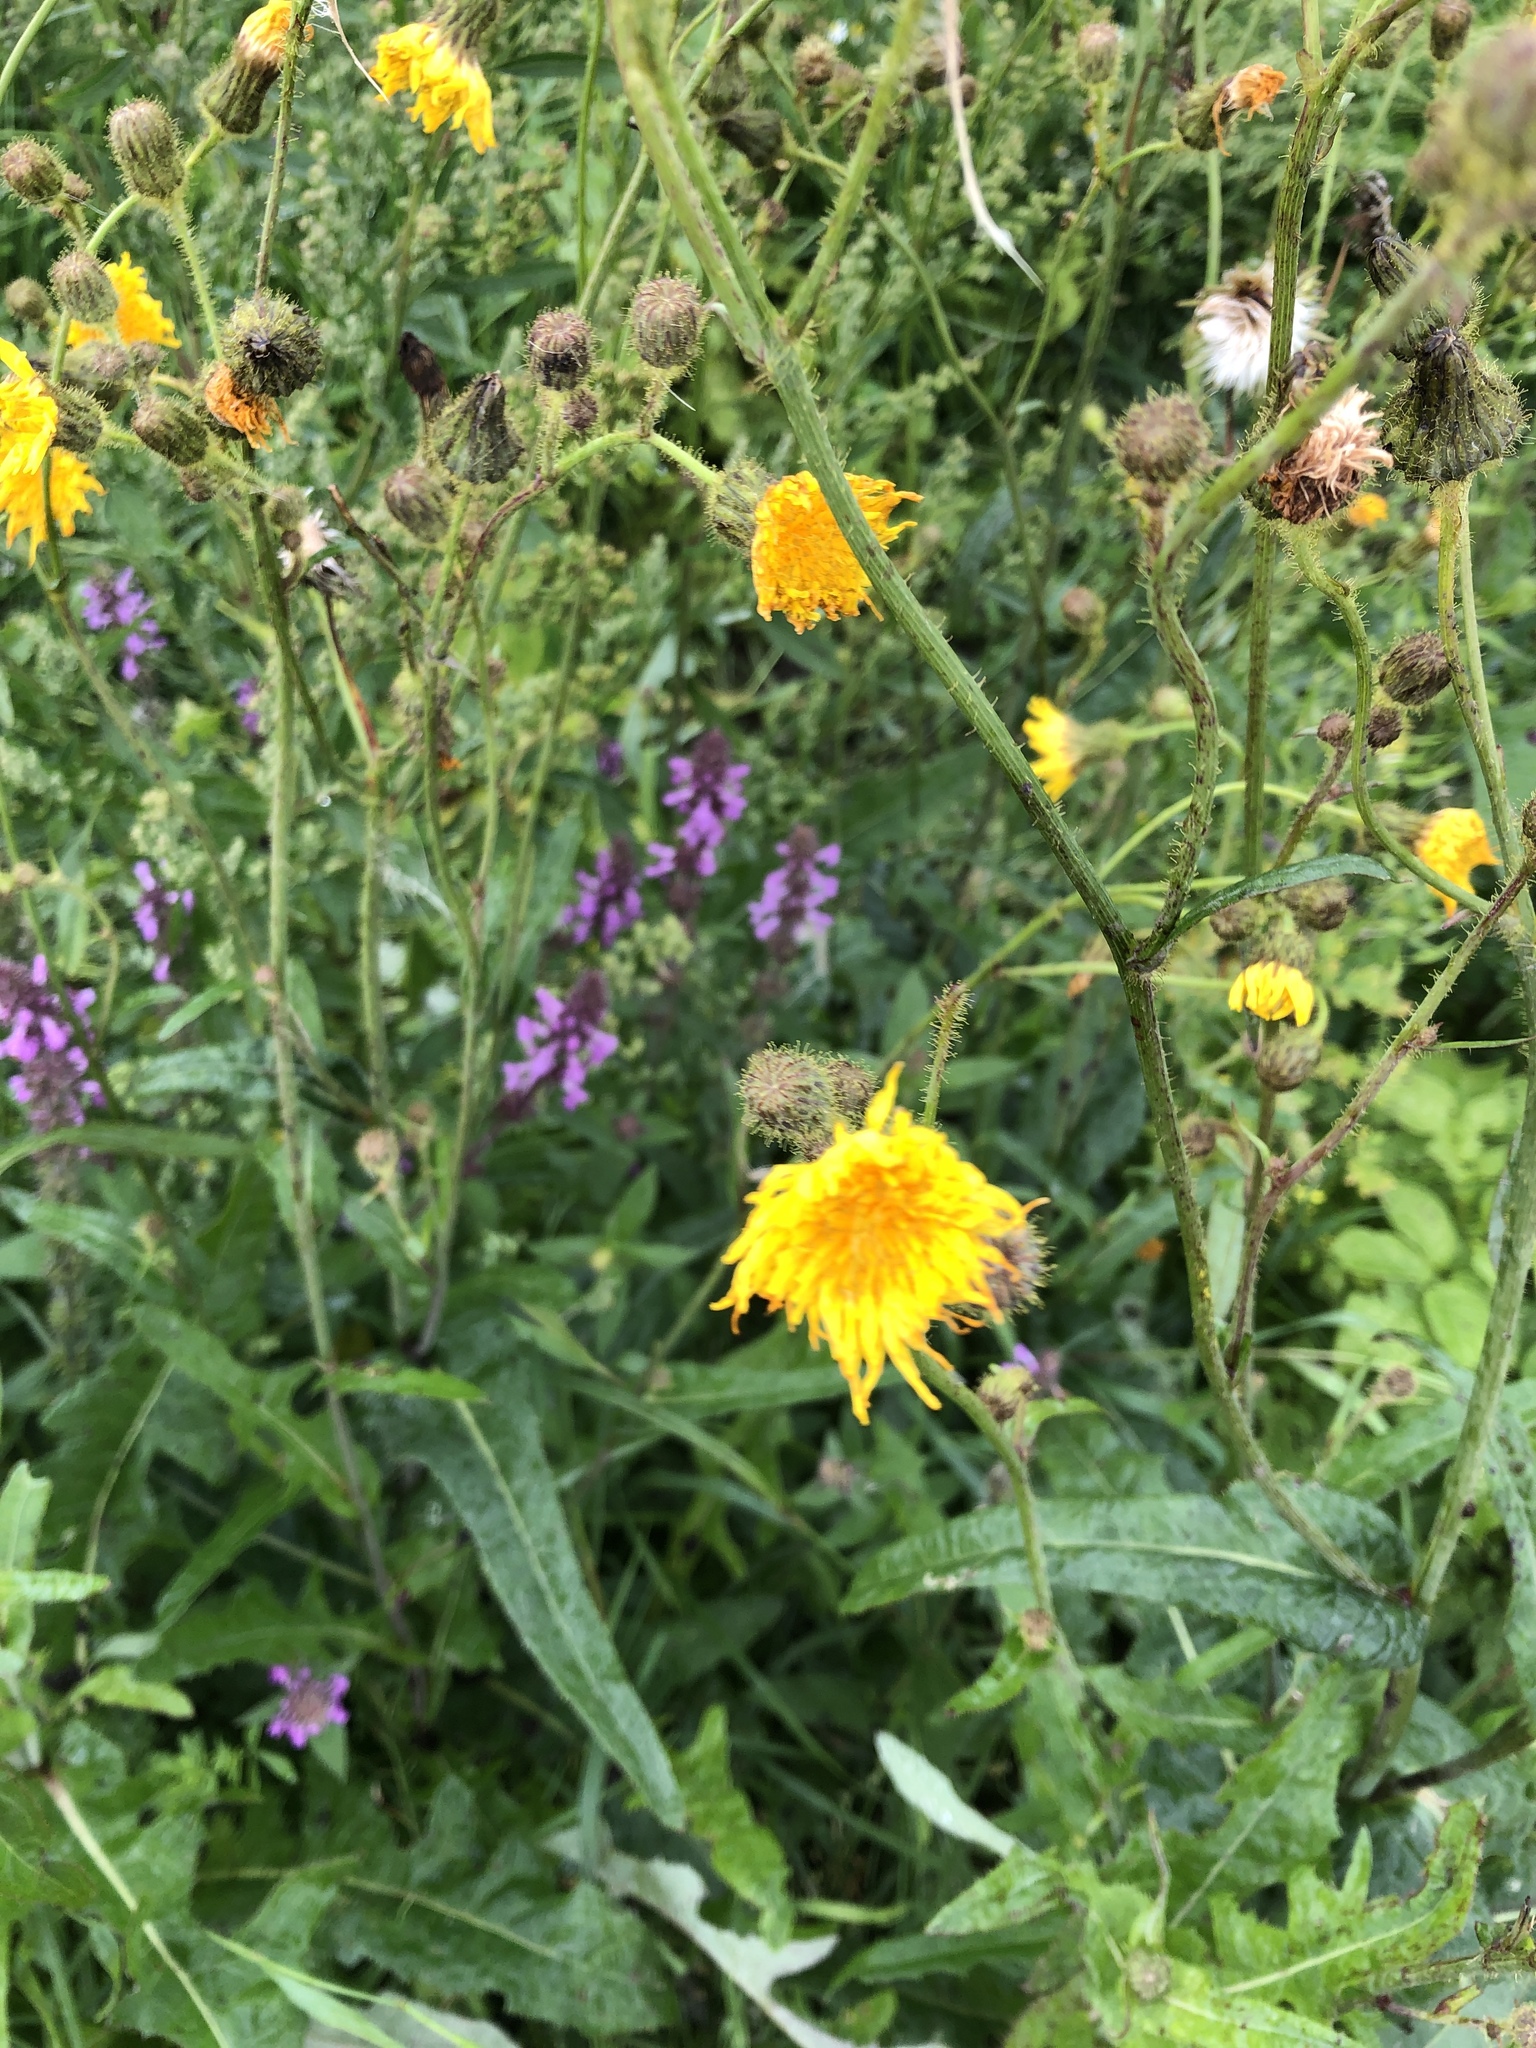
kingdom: Plantae
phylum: Tracheophyta
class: Magnoliopsida
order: Asterales
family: Asteraceae
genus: Sonchus
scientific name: Sonchus arvensis
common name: Perennial sow-thistle
